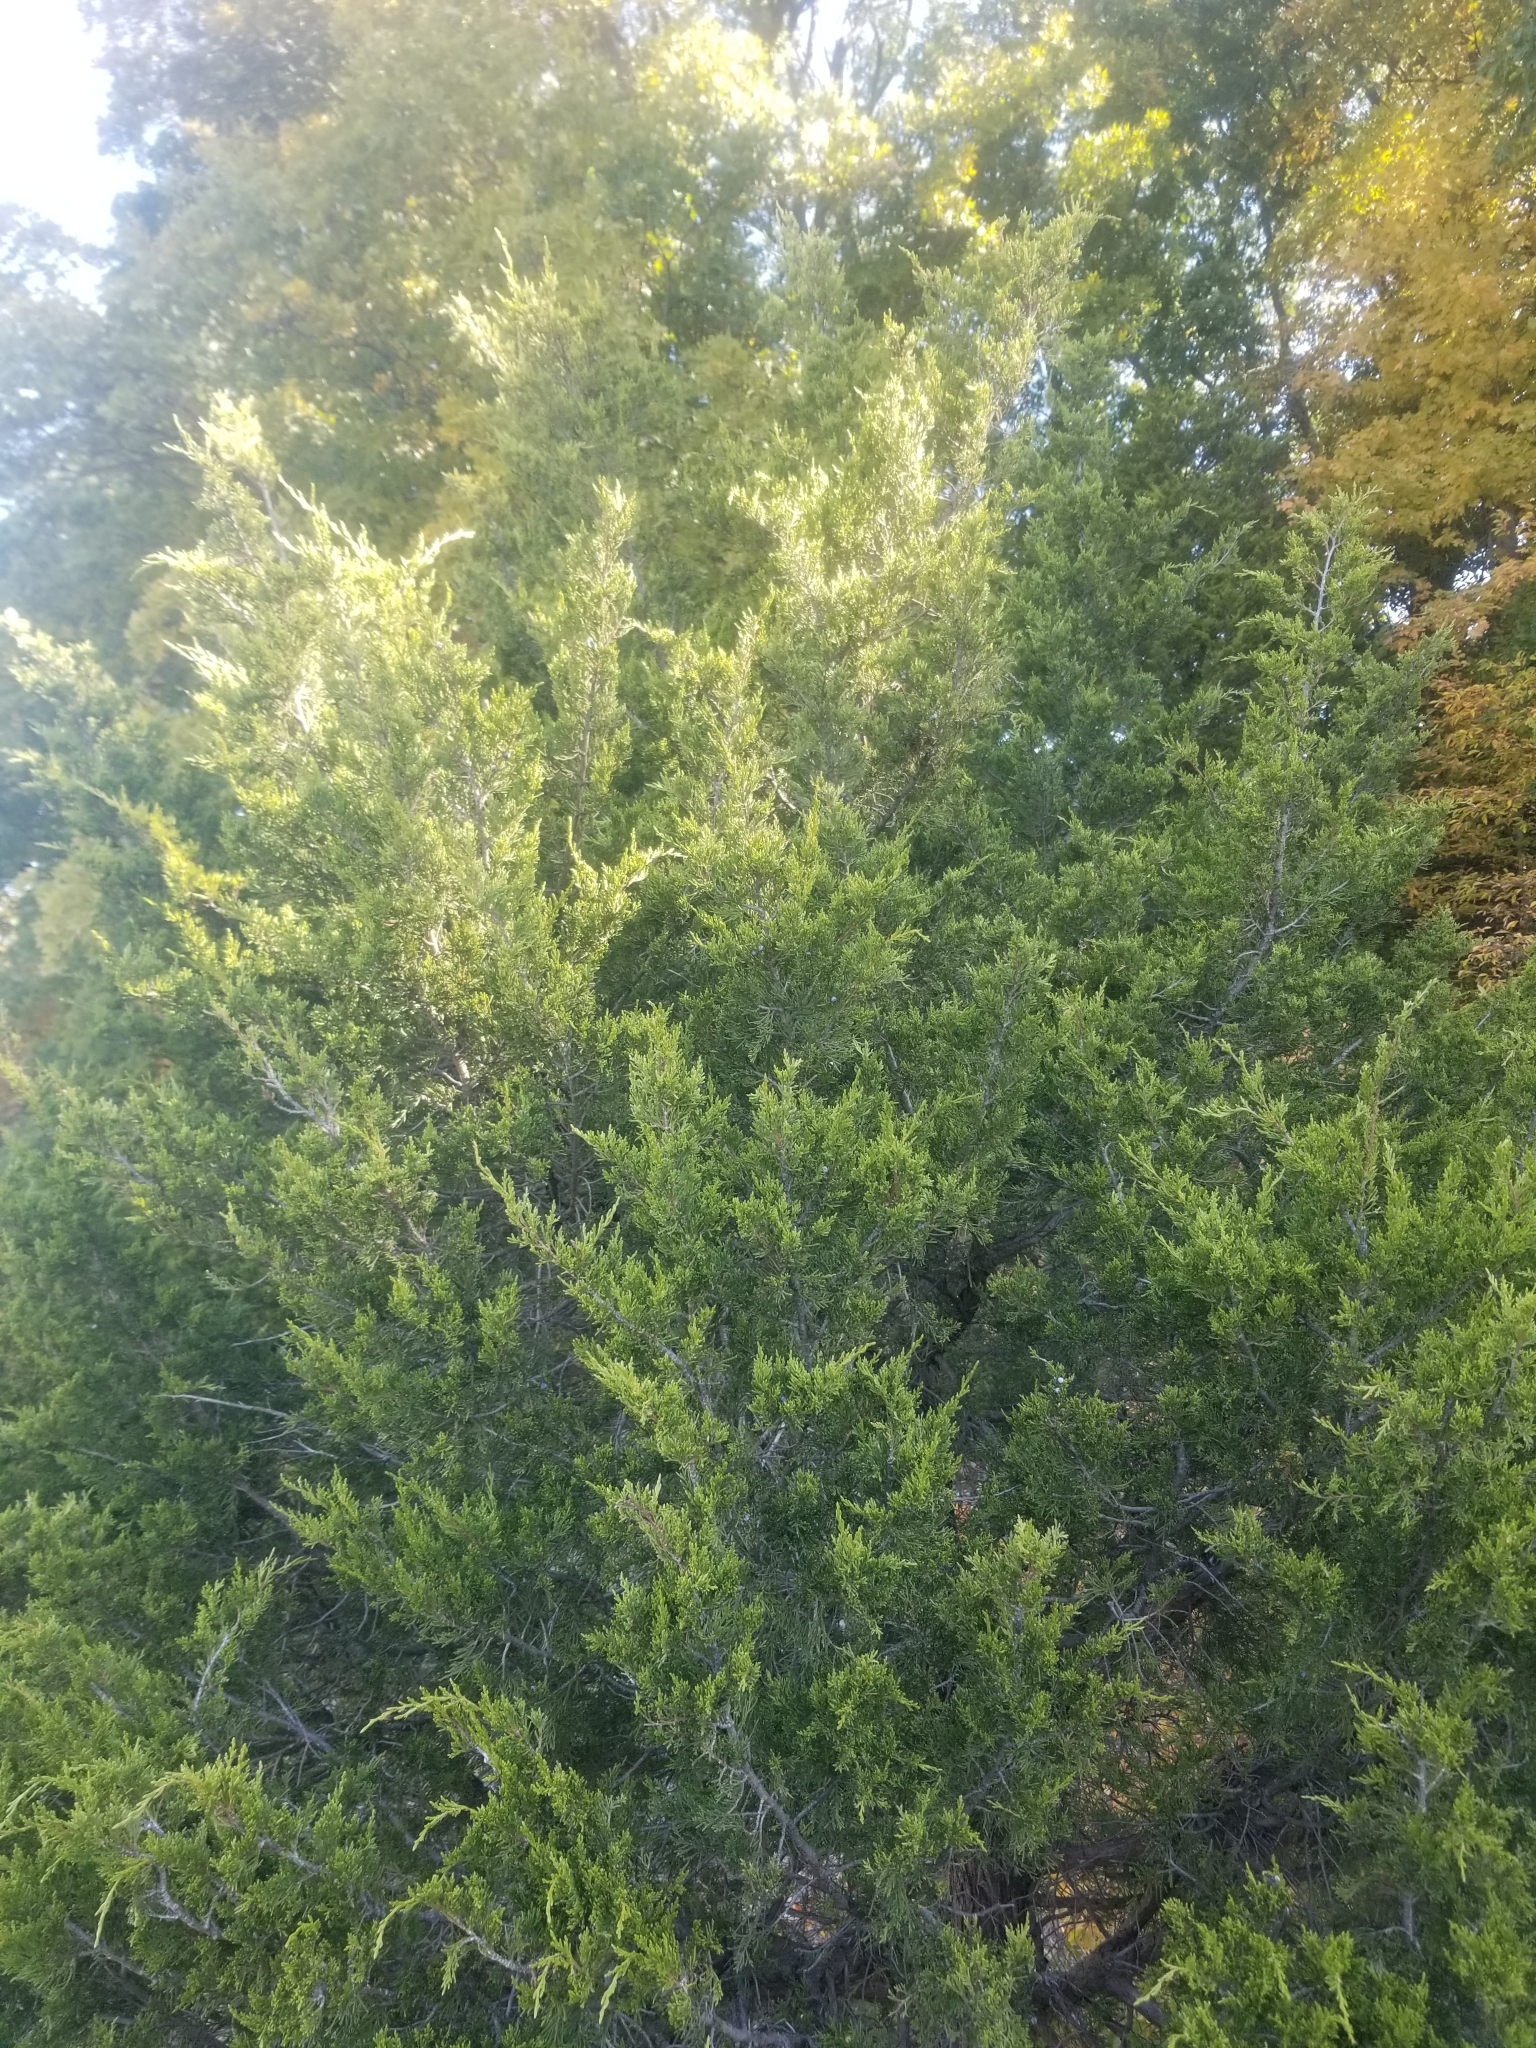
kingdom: Plantae
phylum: Tracheophyta
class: Pinopsida
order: Pinales
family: Cupressaceae
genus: Juniperus
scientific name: Juniperus virginiana
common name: Red juniper
